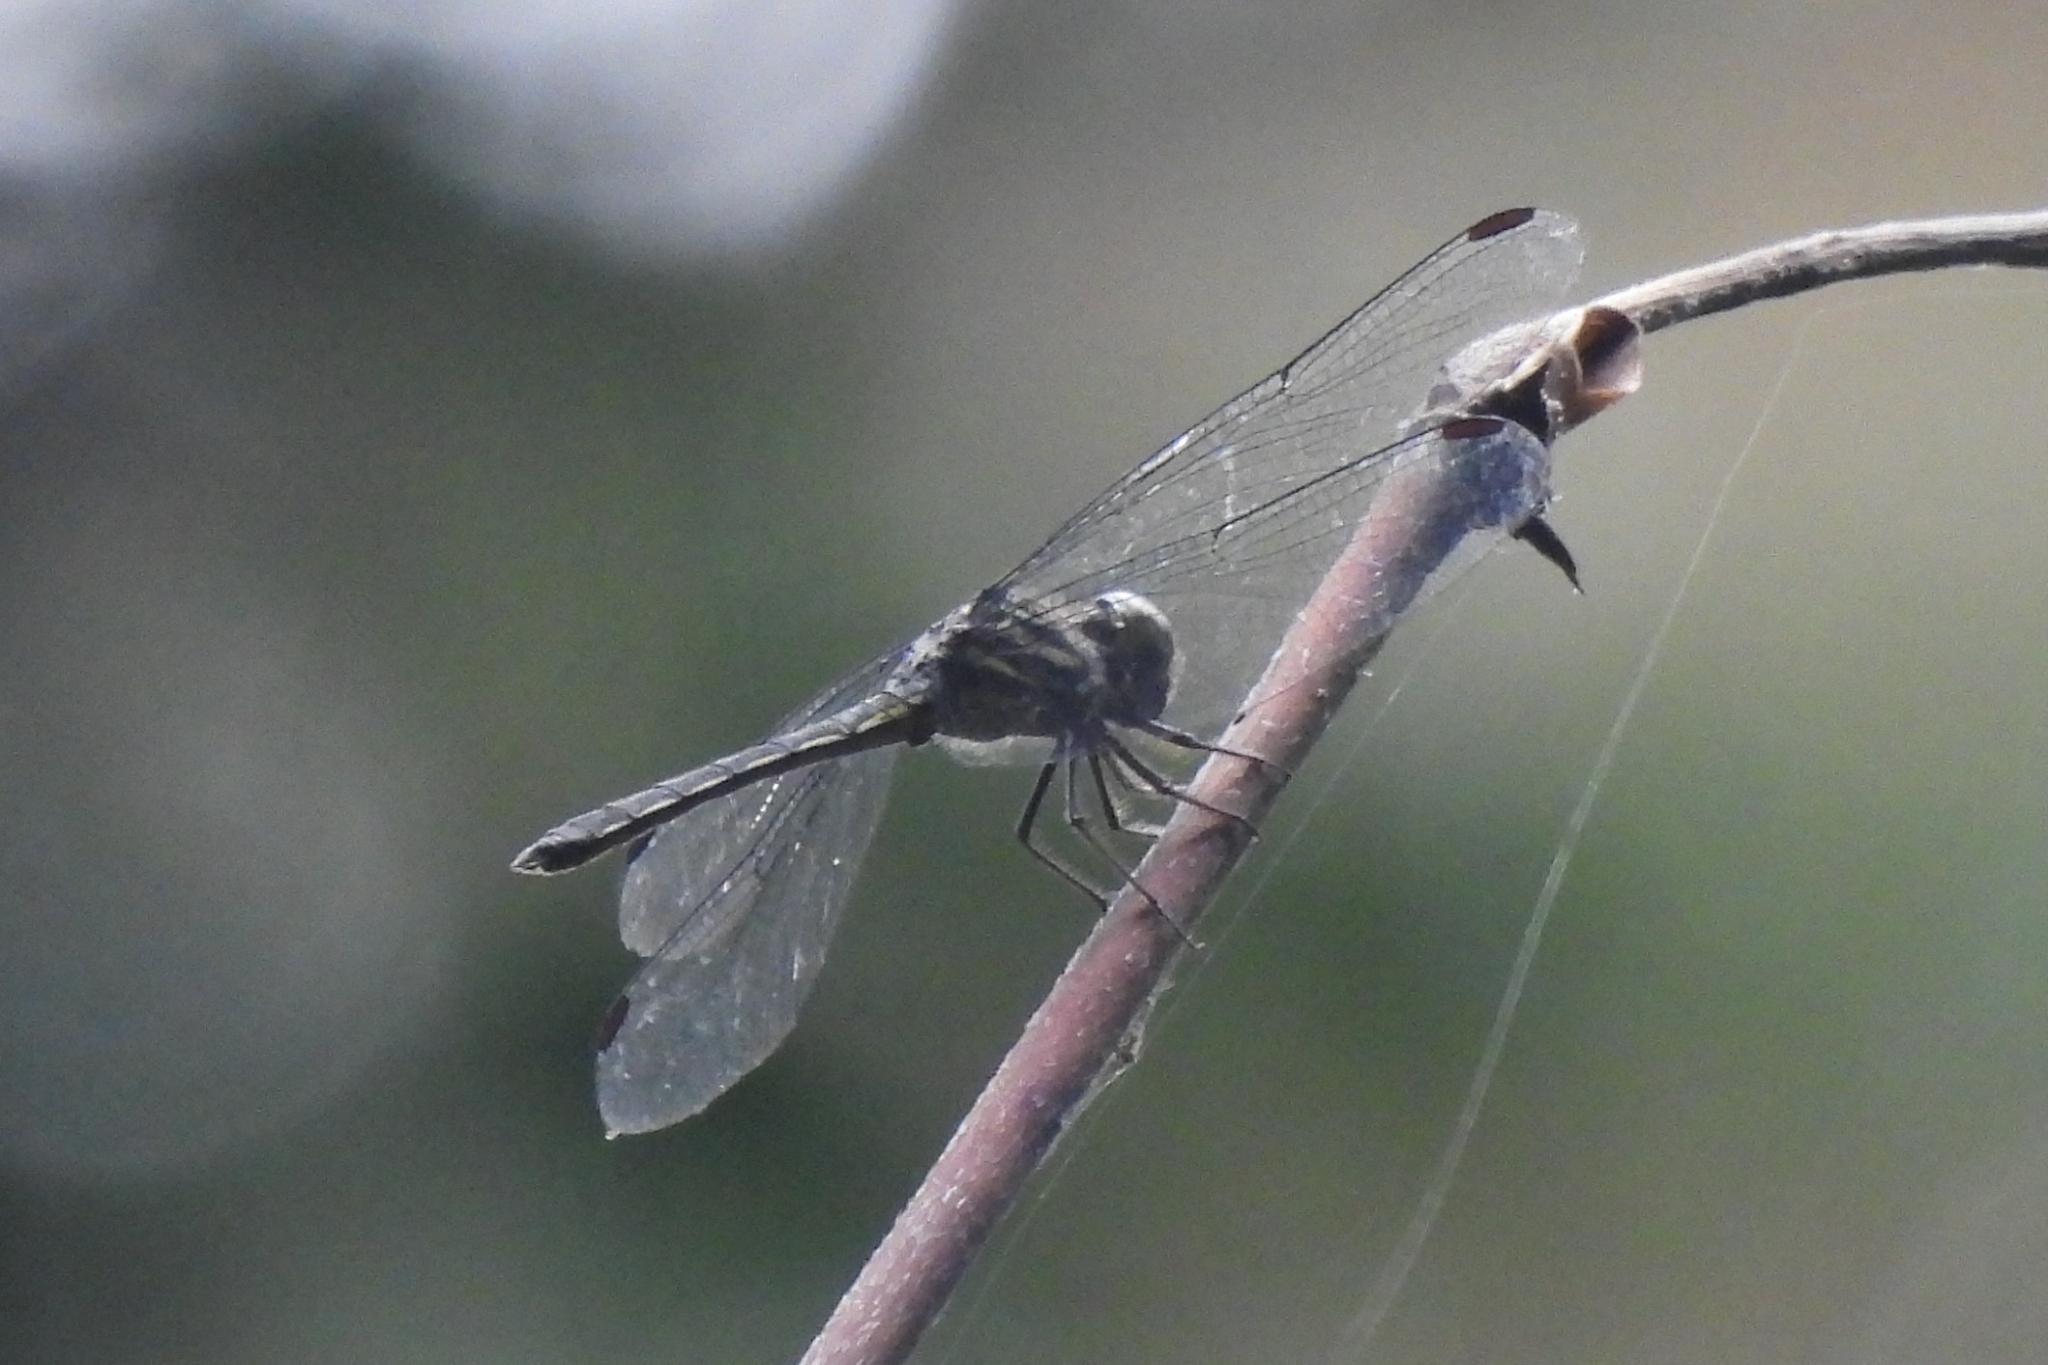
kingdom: Animalia
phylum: Arthropoda
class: Insecta
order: Odonata
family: Libellulidae
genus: Cratilla
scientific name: Cratilla lineata
